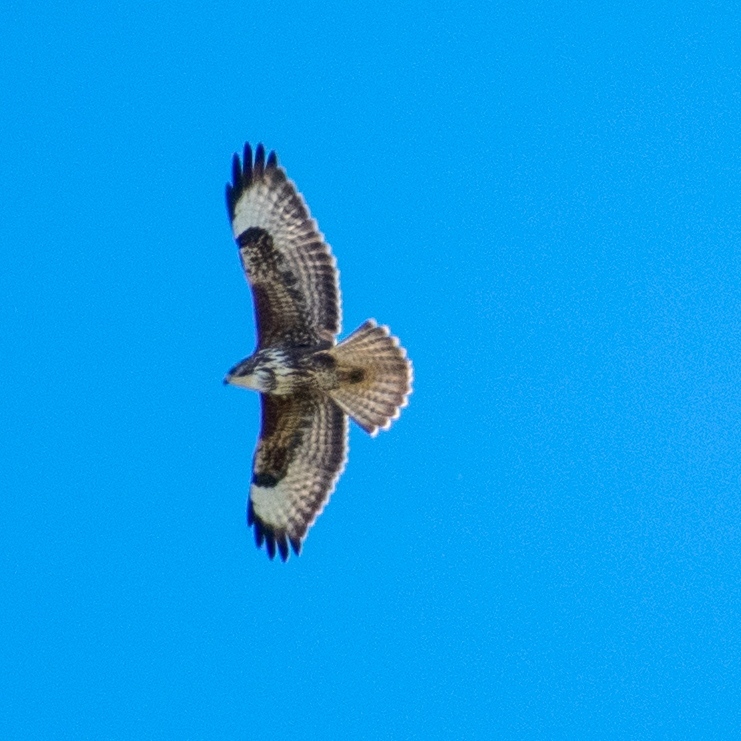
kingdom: Animalia
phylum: Chordata
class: Aves
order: Accipitriformes
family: Accipitridae
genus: Buteo
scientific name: Buteo buteo
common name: Common buzzard
